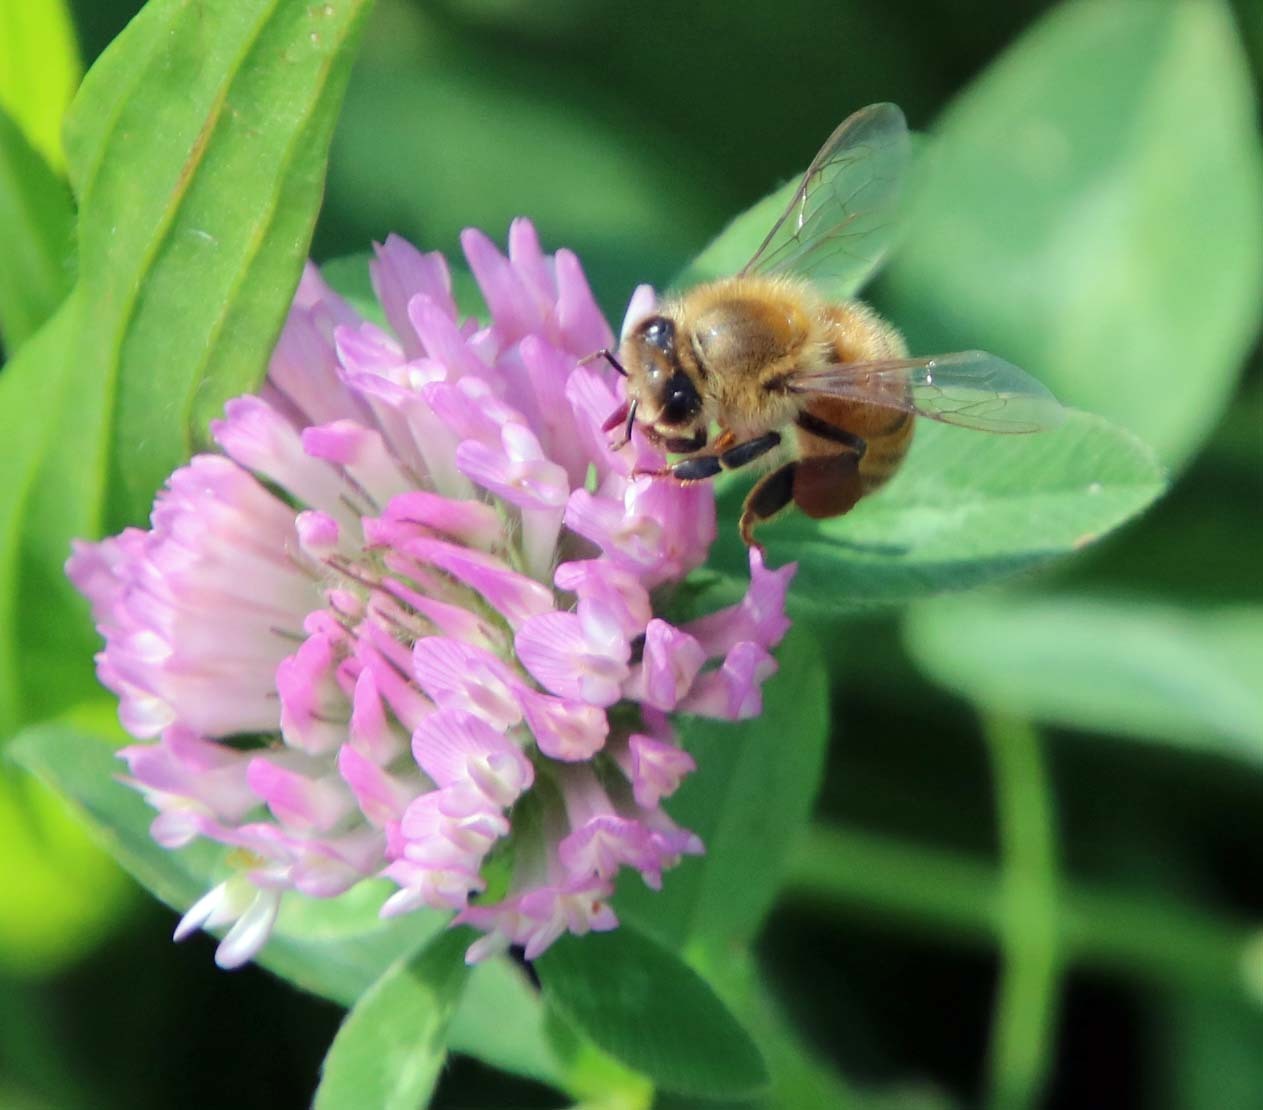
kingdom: Animalia
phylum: Arthropoda
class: Insecta
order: Hymenoptera
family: Apidae
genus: Apis
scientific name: Apis mellifera
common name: Honey bee
